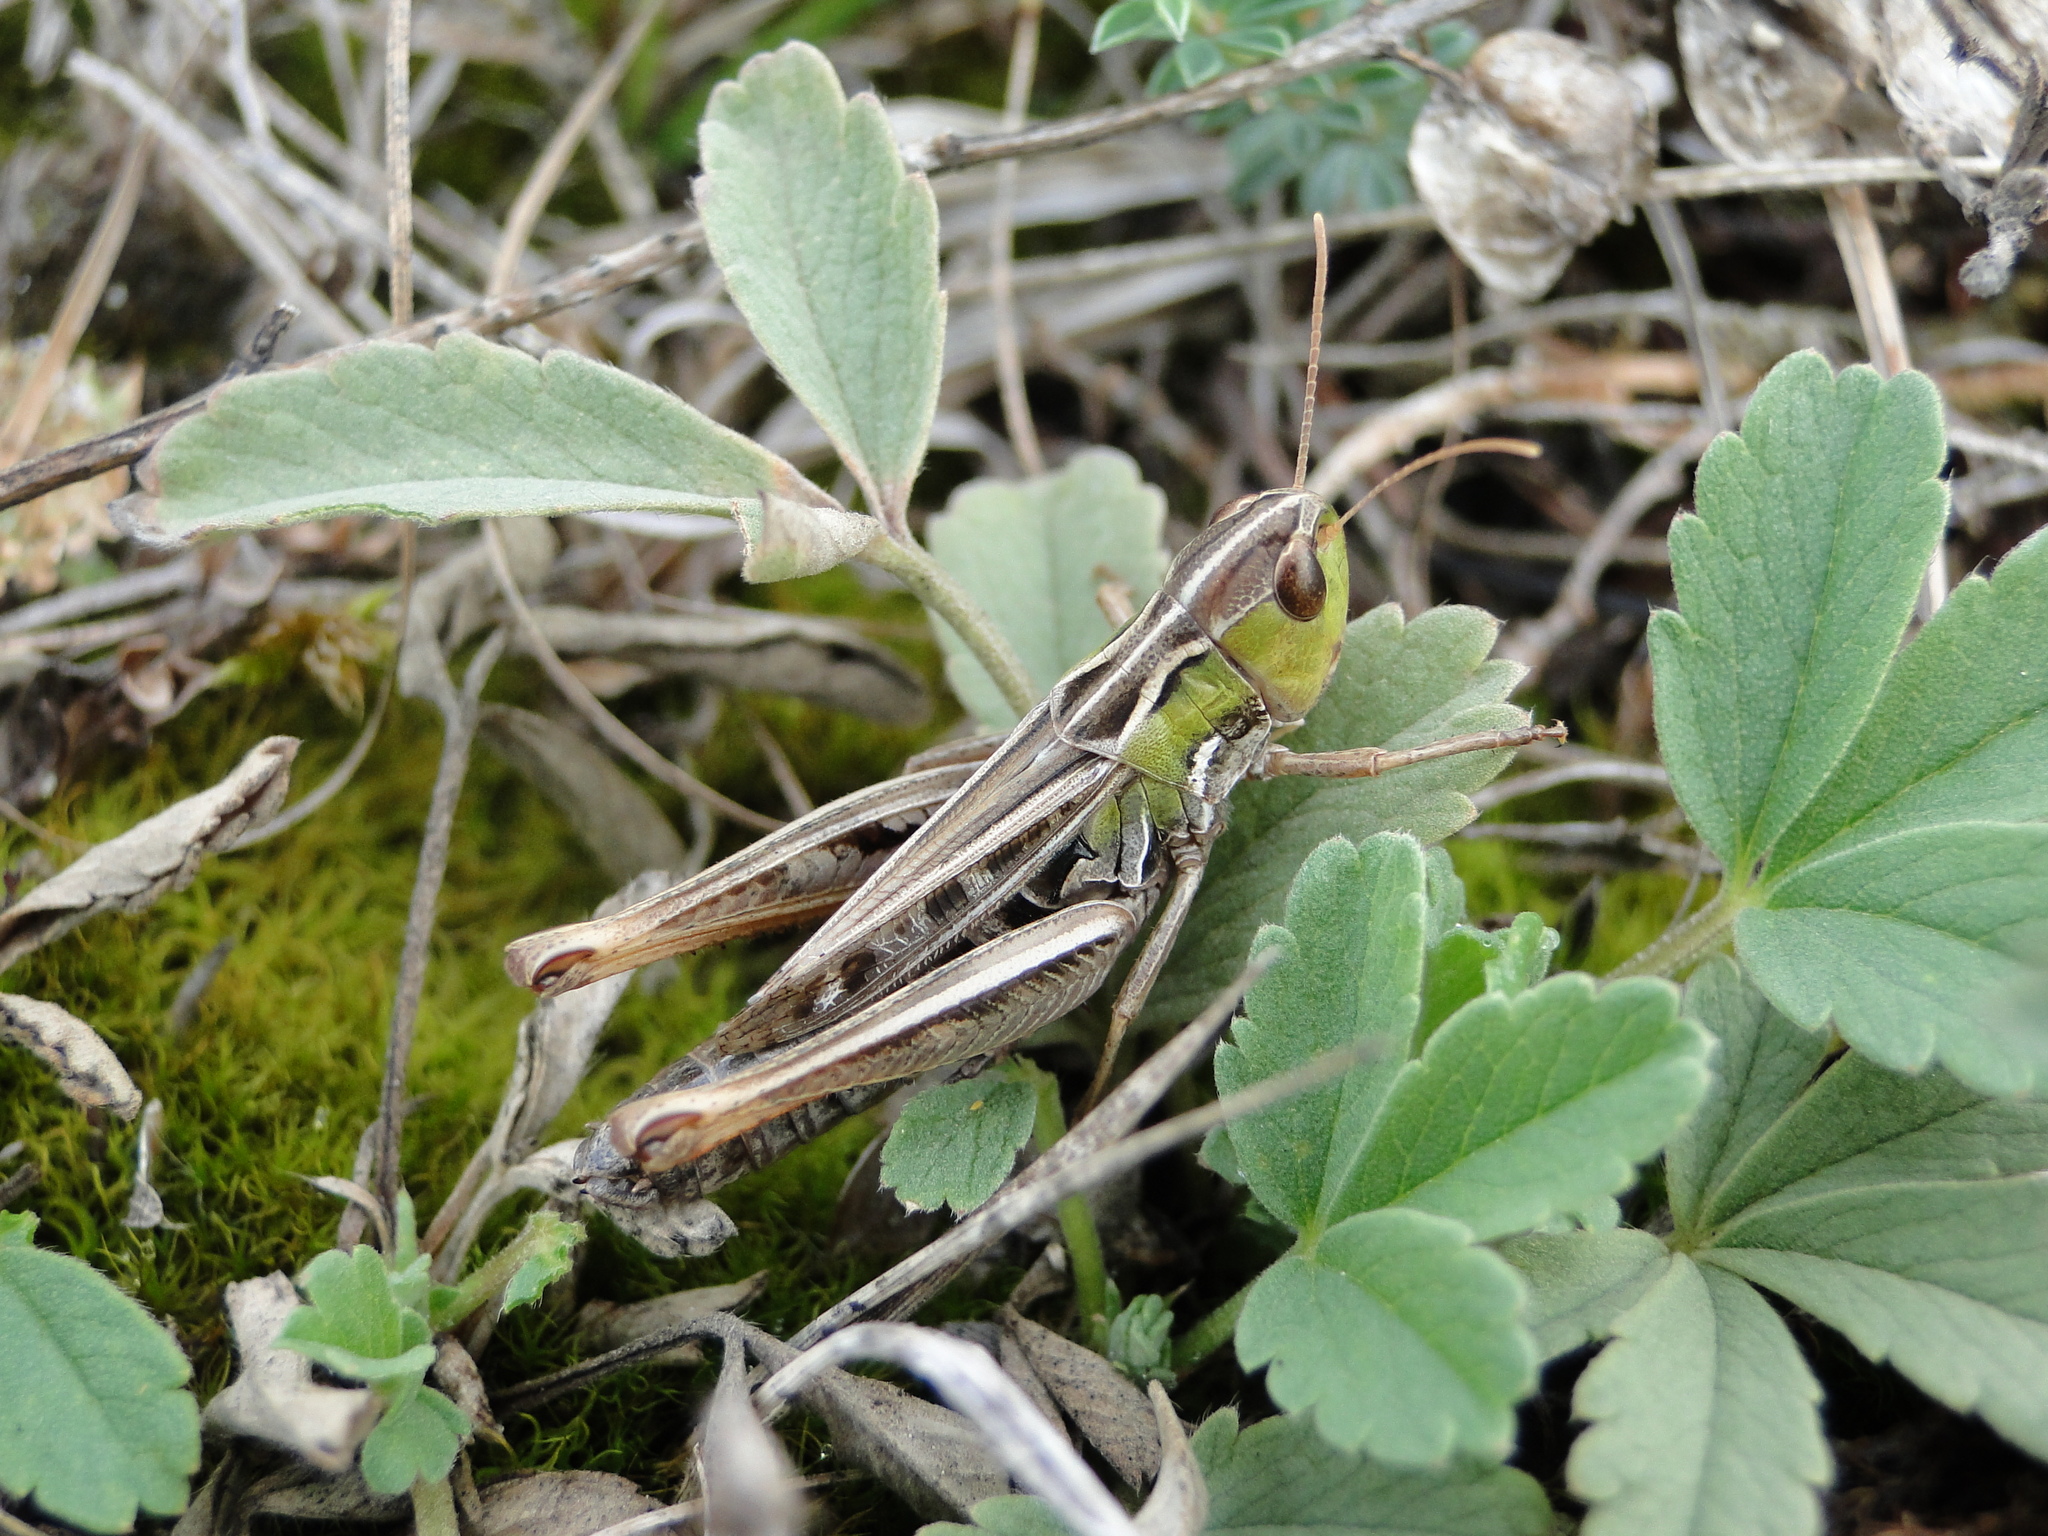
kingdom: Animalia
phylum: Arthropoda
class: Insecta
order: Orthoptera
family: Acrididae
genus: Stenobothrus
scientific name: Stenobothrus nigromaculatus
